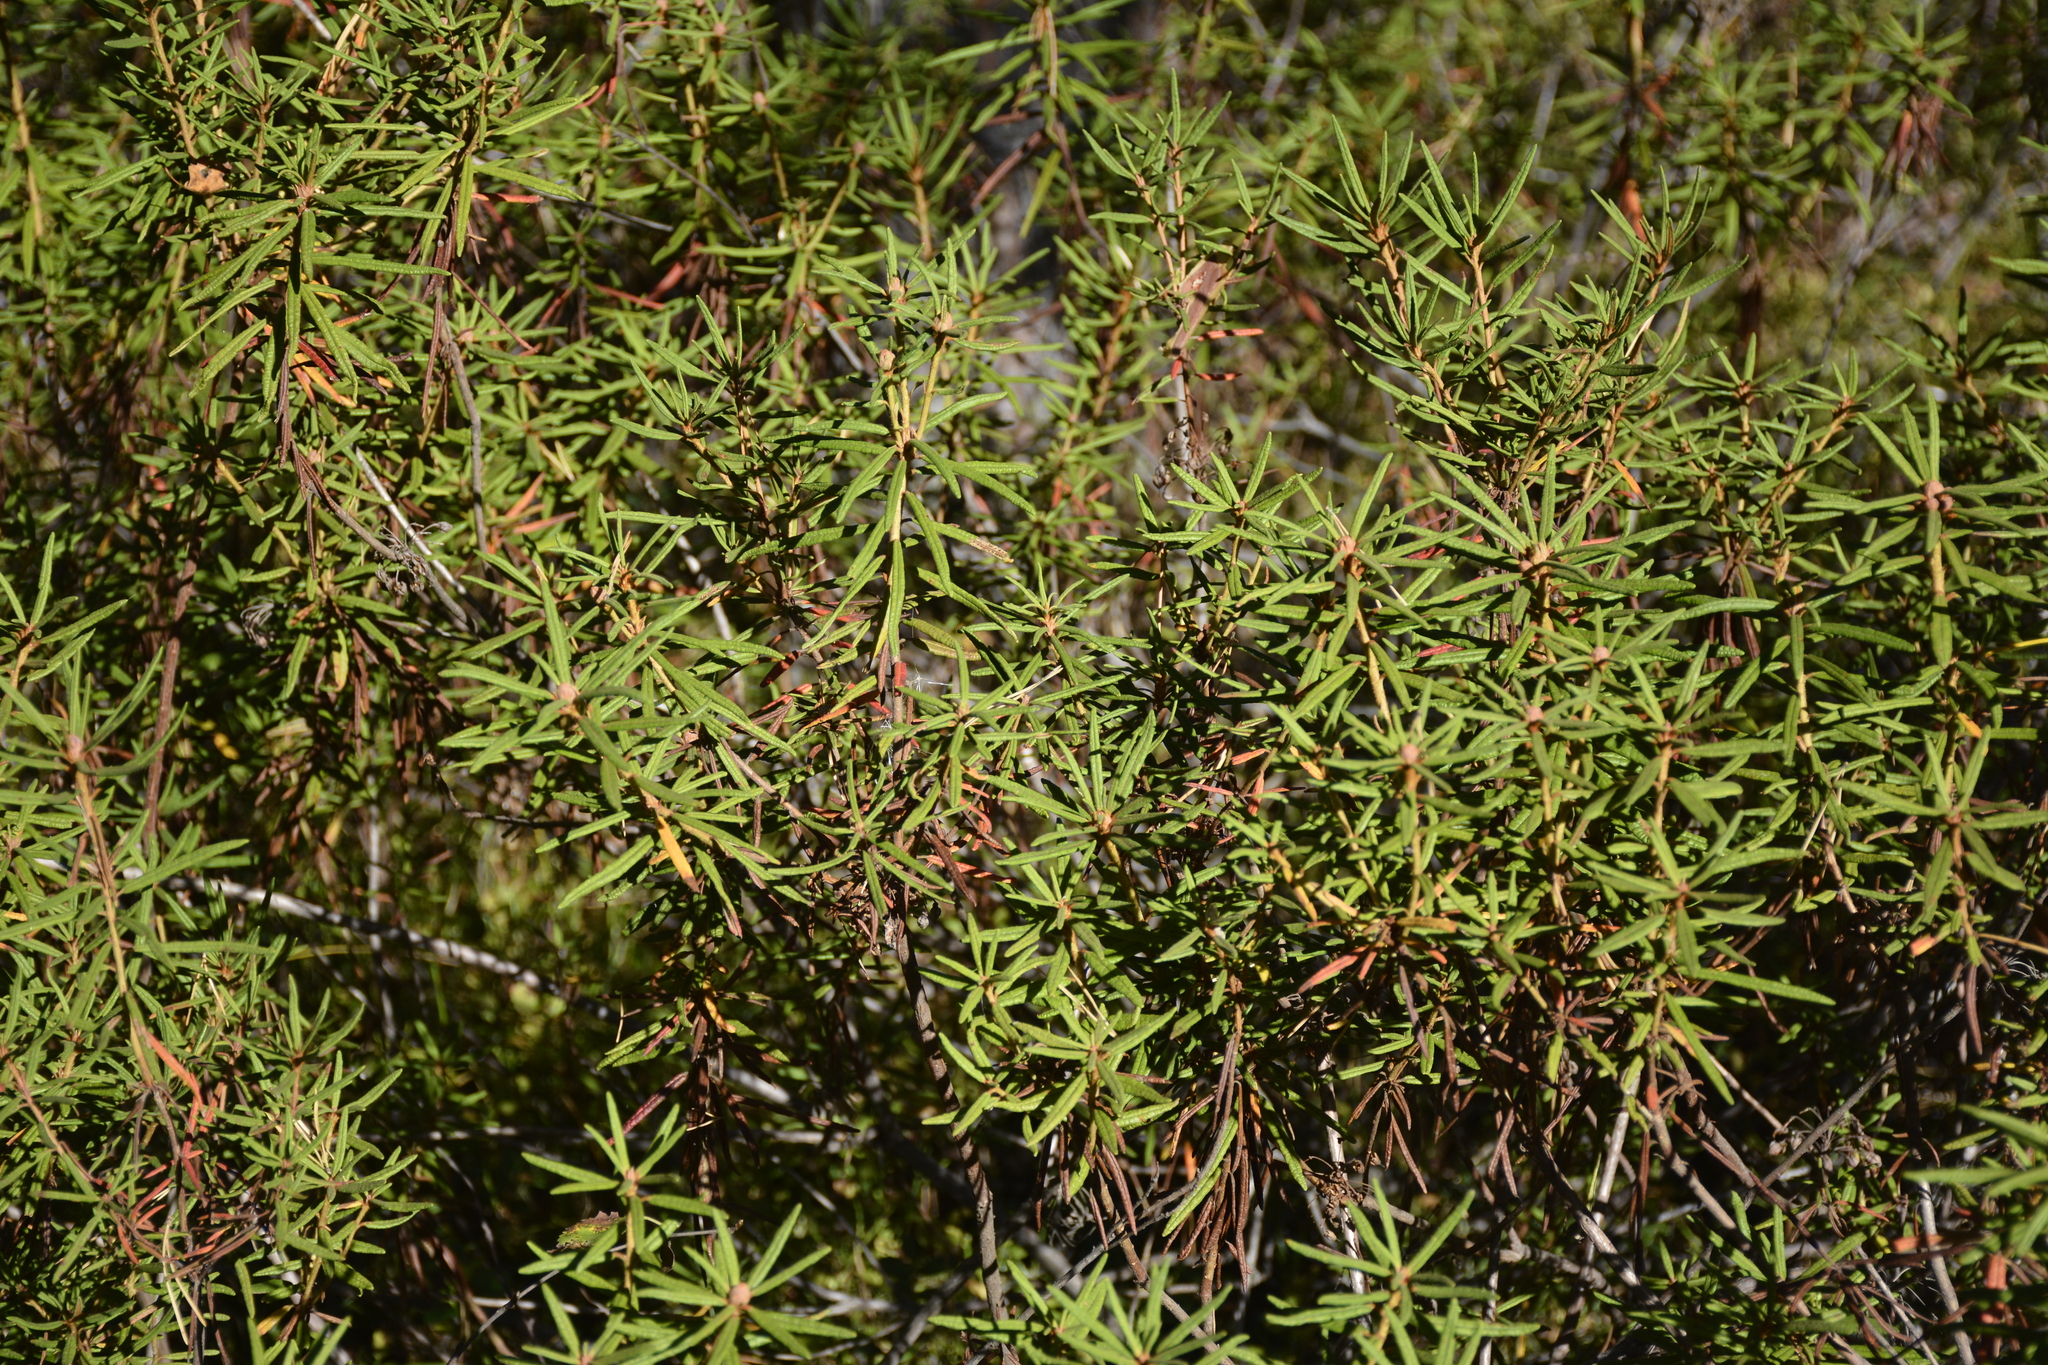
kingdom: Plantae
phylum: Tracheophyta
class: Magnoliopsida
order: Ericales
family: Ericaceae
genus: Rhododendron
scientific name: Rhododendron tomentosum
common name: Marsh labrador tea
